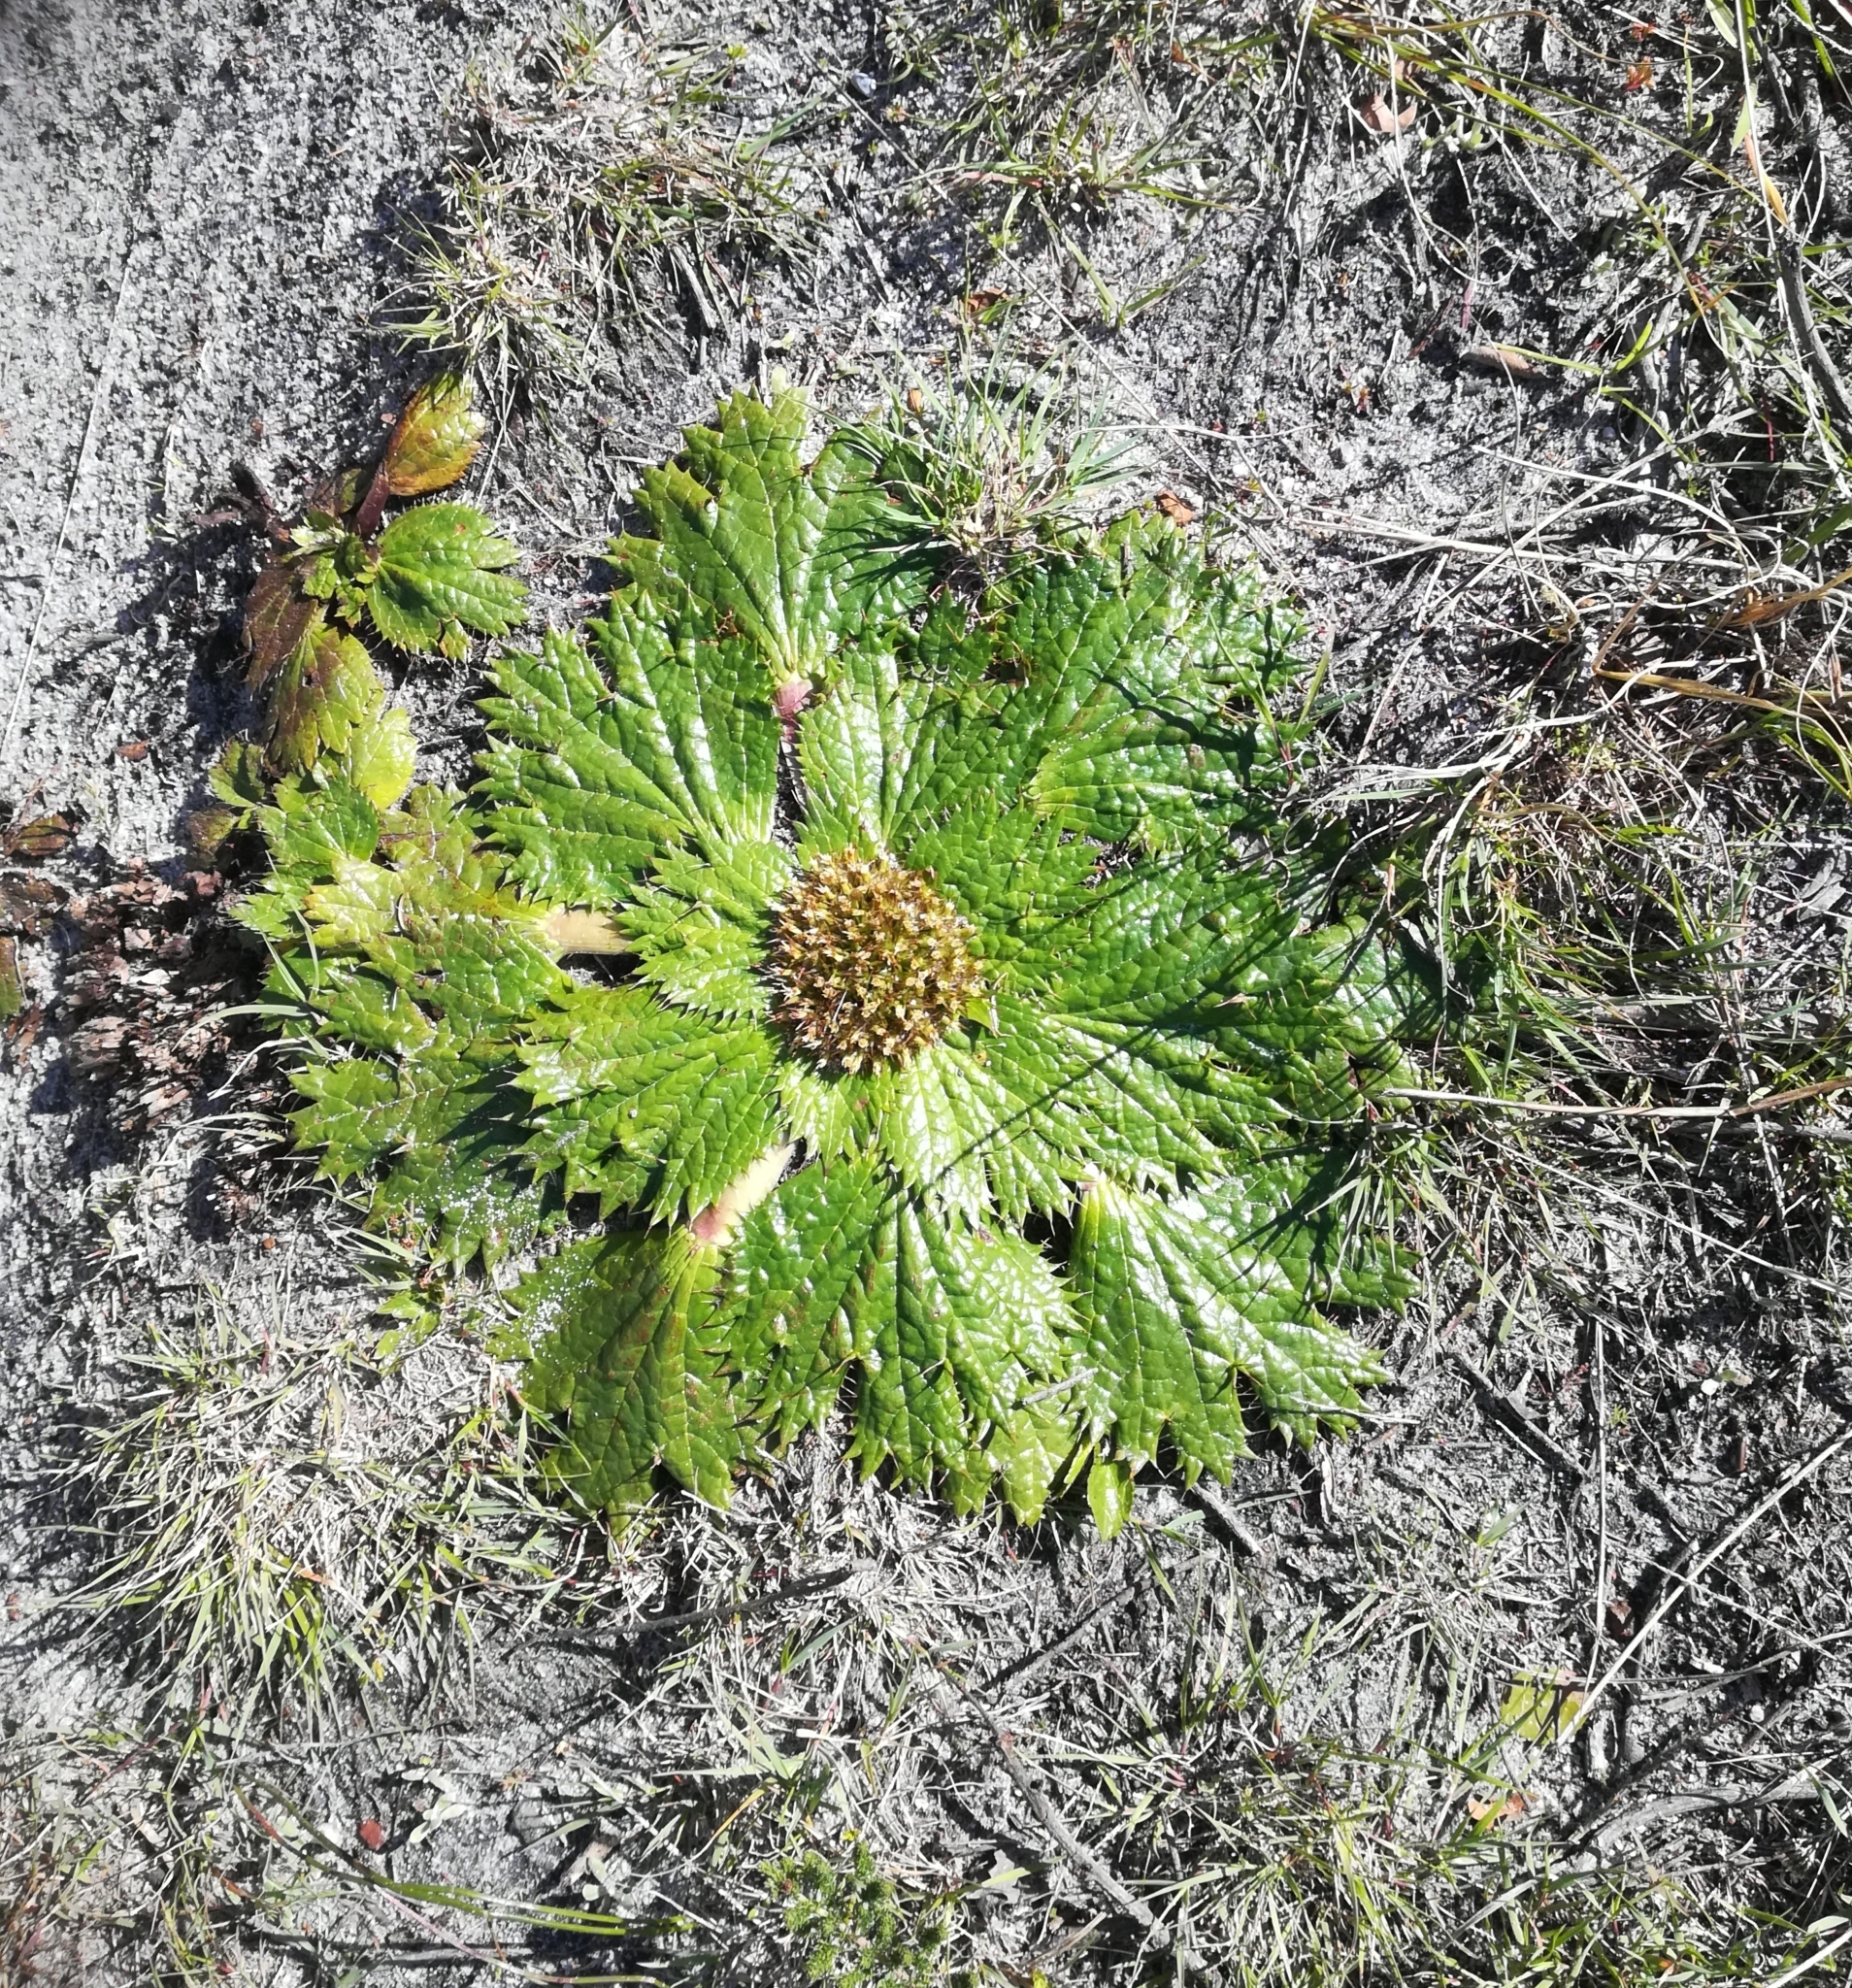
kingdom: Plantae
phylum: Tracheophyta
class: Magnoliopsida
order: Apiales
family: Apiaceae
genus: Arctopus
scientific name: Arctopus echinatus
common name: Platdoring
